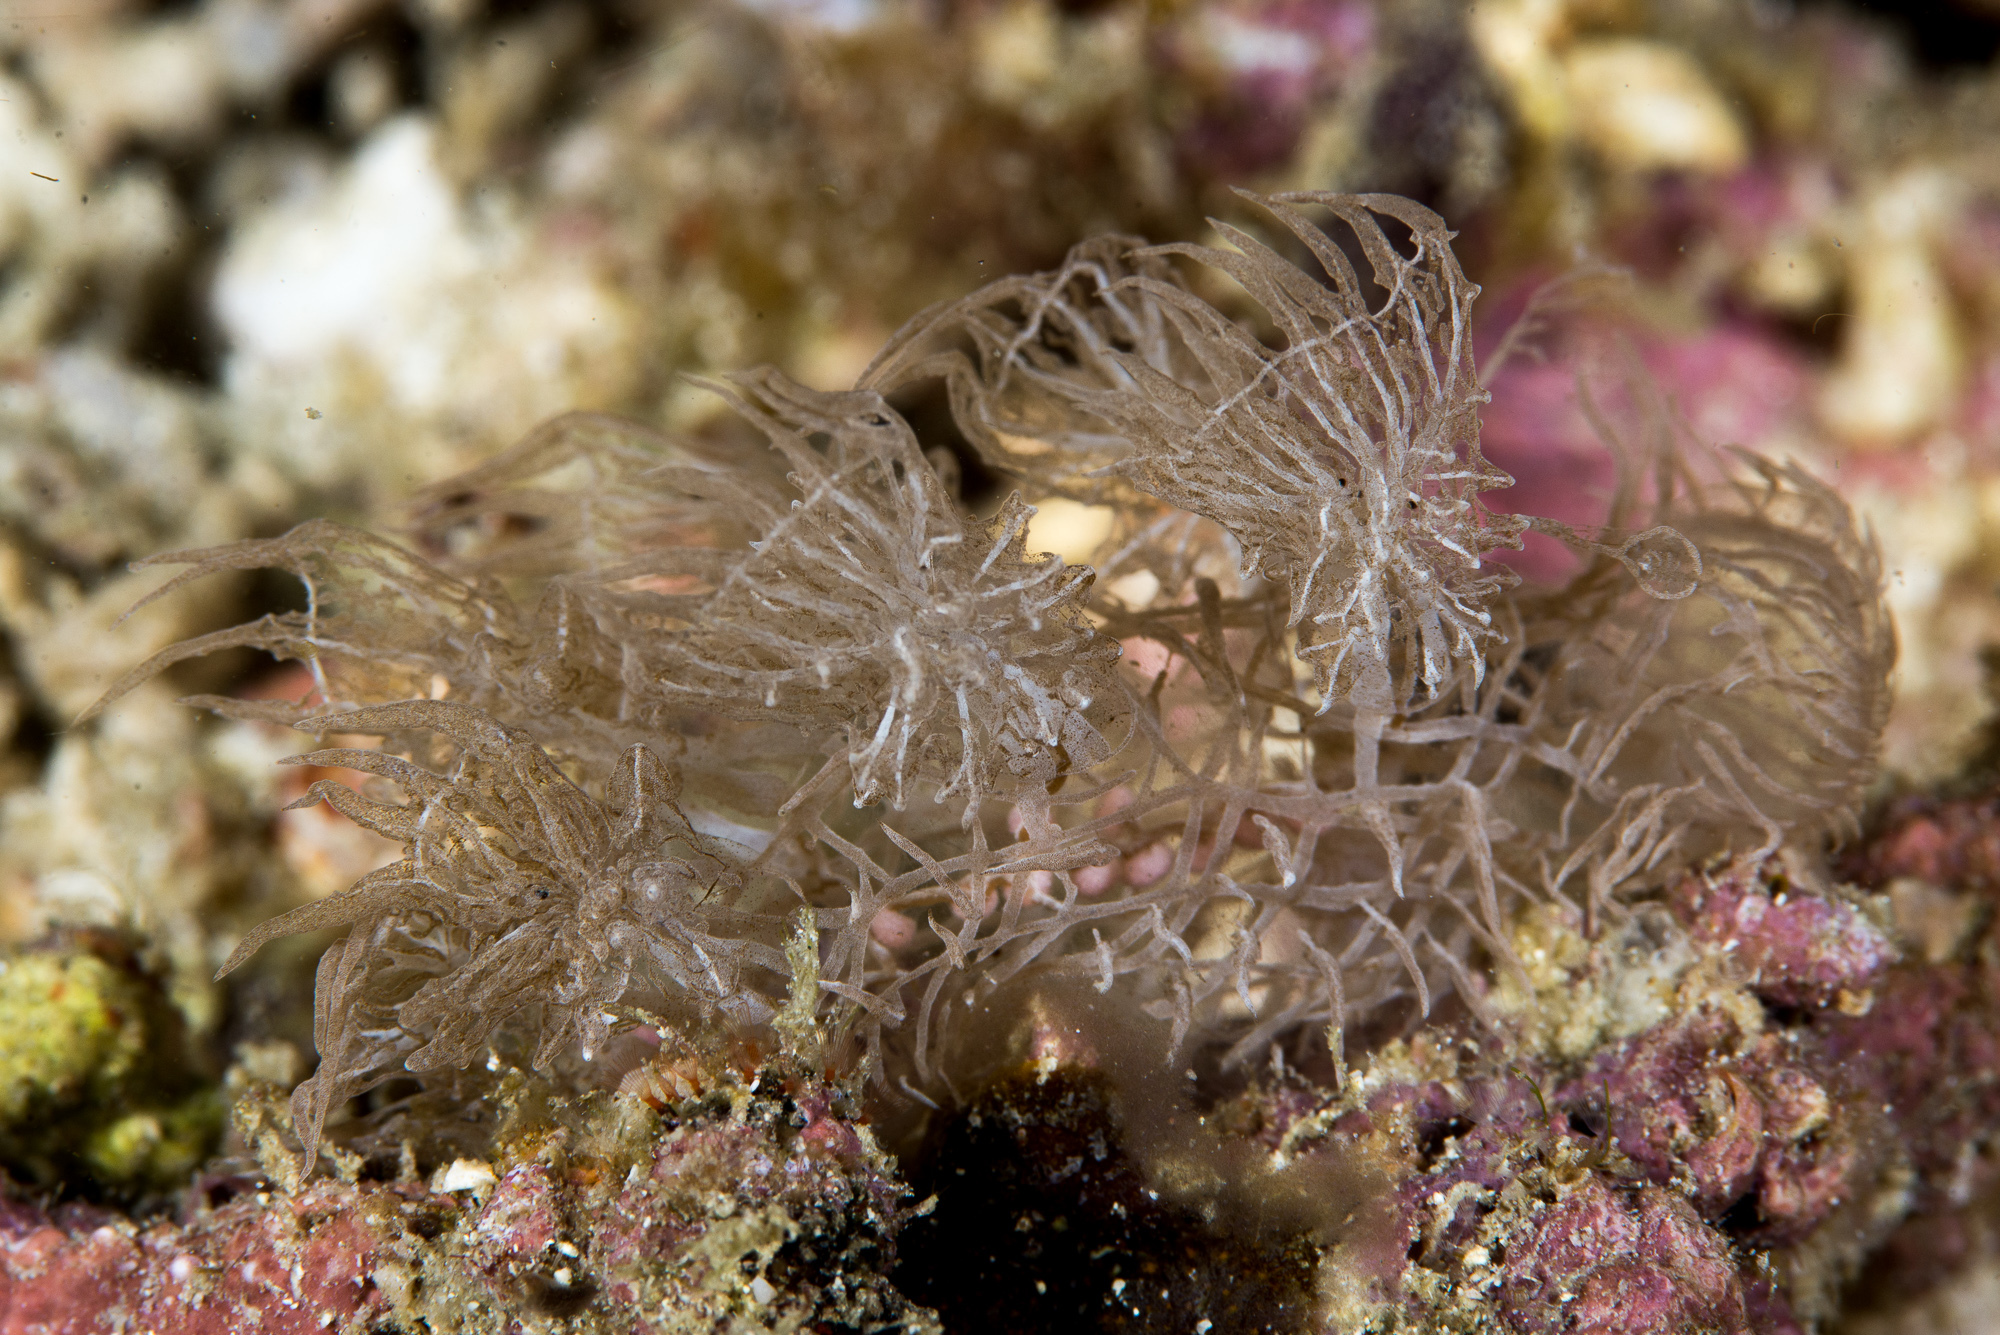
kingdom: Animalia
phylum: Mollusca
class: Gastropoda
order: Nudibranchia
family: Tethydidae
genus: Melibe
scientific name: Melibe colemani
